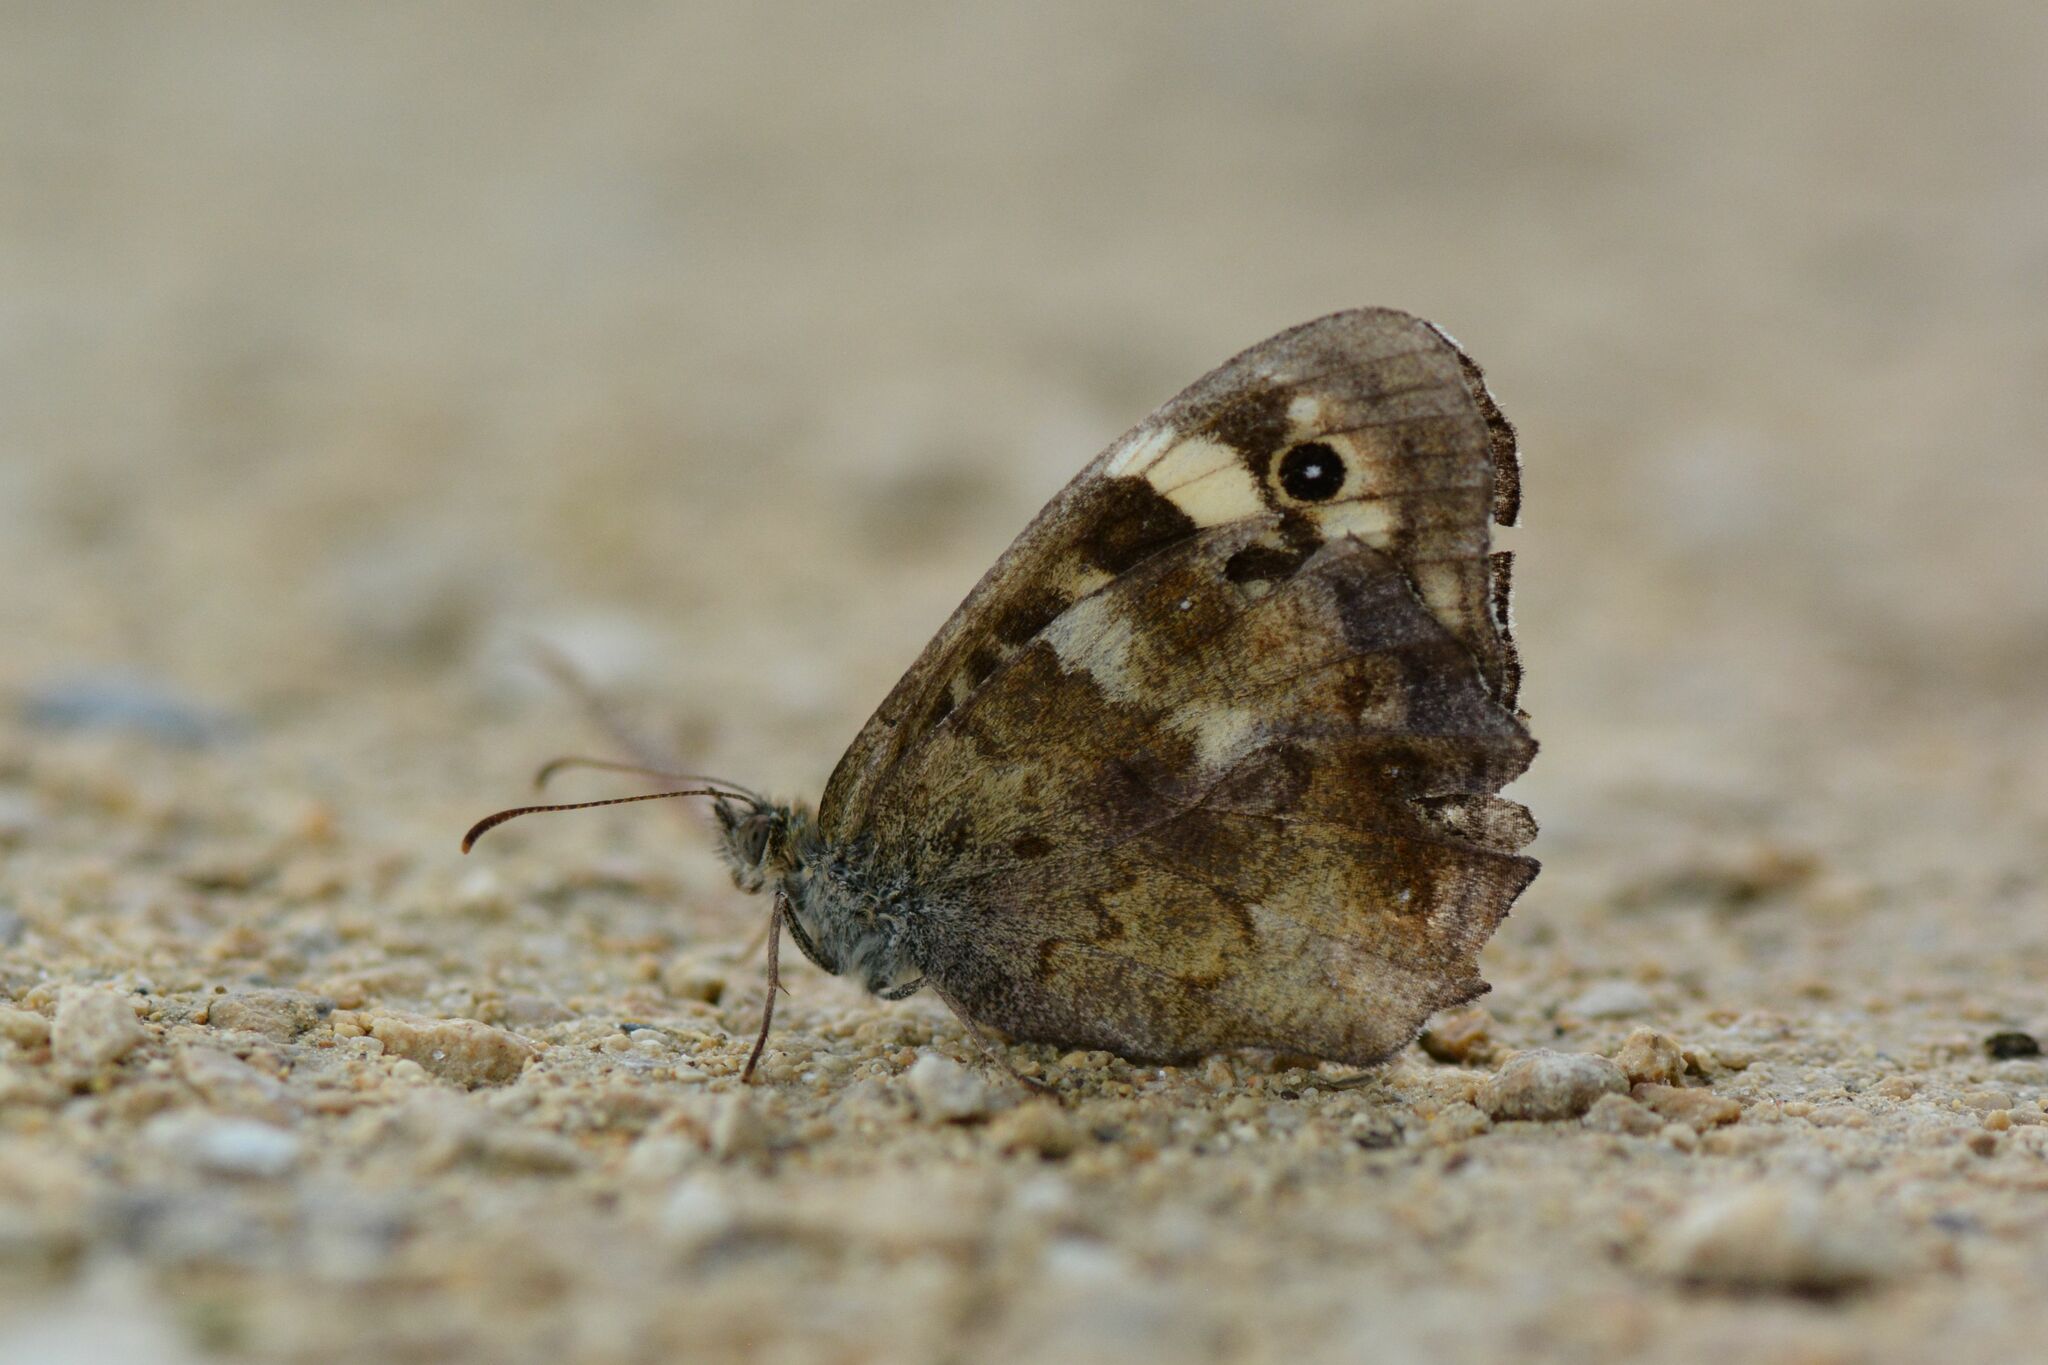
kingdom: Animalia
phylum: Arthropoda
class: Insecta
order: Lepidoptera
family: Nymphalidae
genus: Pararge
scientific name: Pararge aegeria
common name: Speckled wood
